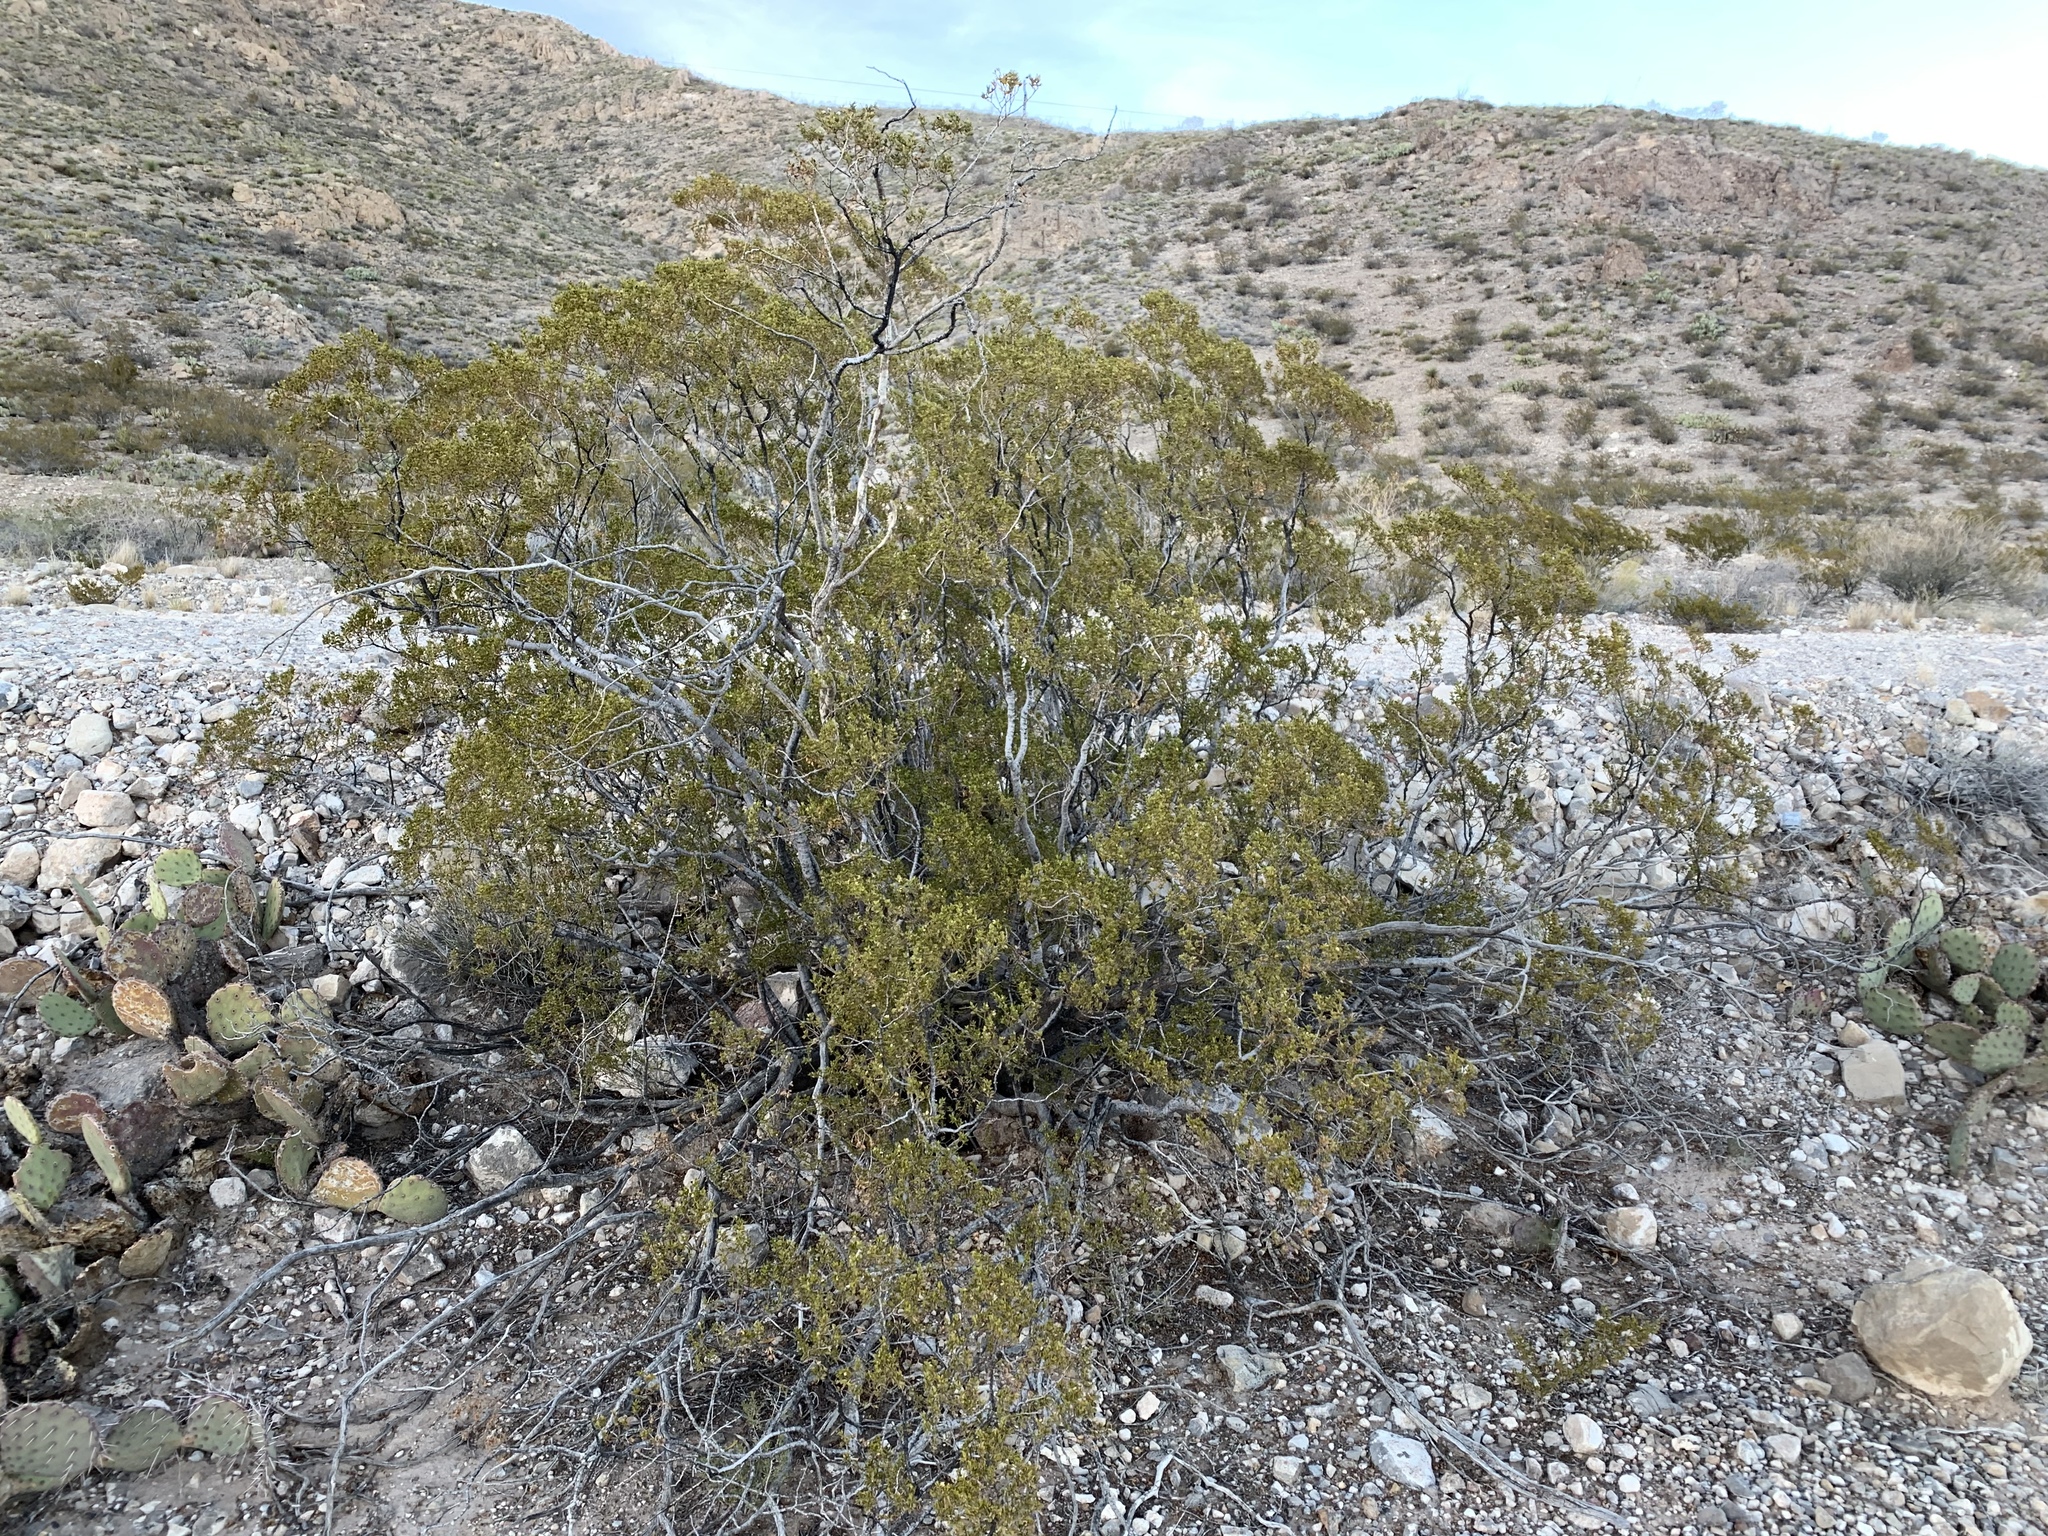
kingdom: Plantae
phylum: Tracheophyta
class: Magnoliopsida
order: Zygophyllales
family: Zygophyllaceae
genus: Larrea
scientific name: Larrea tridentata
